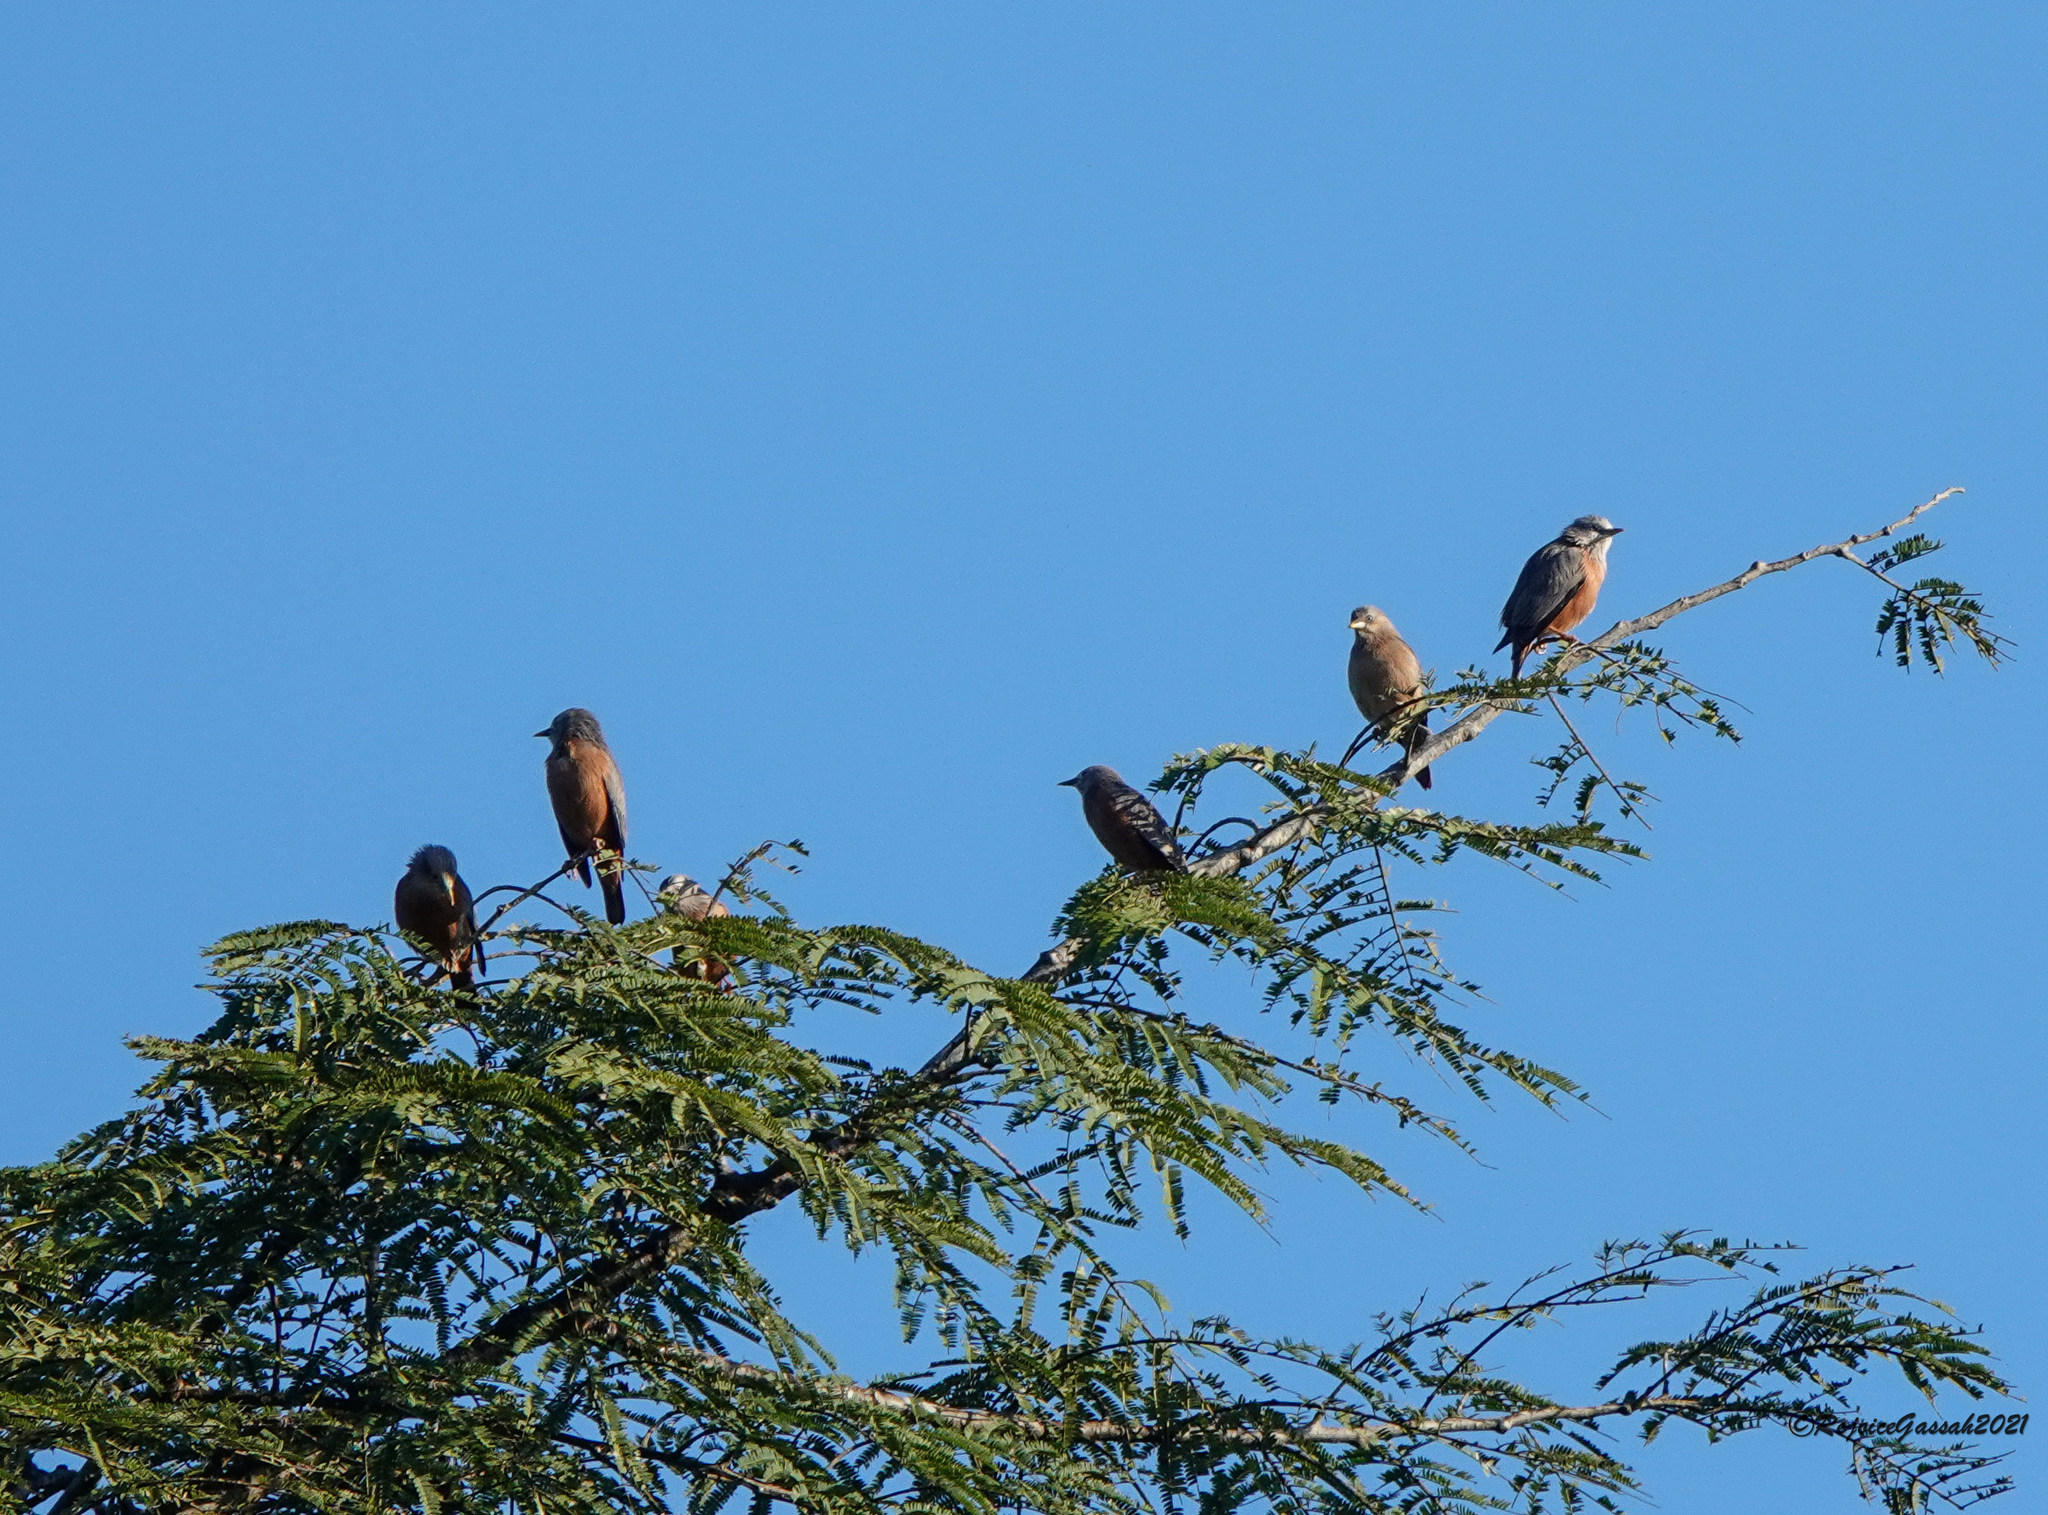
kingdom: Animalia
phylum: Chordata
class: Aves
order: Passeriformes
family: Sturnidae
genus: Sturnia
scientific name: Sturnia malabarica
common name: Chestnut-tailed starling
